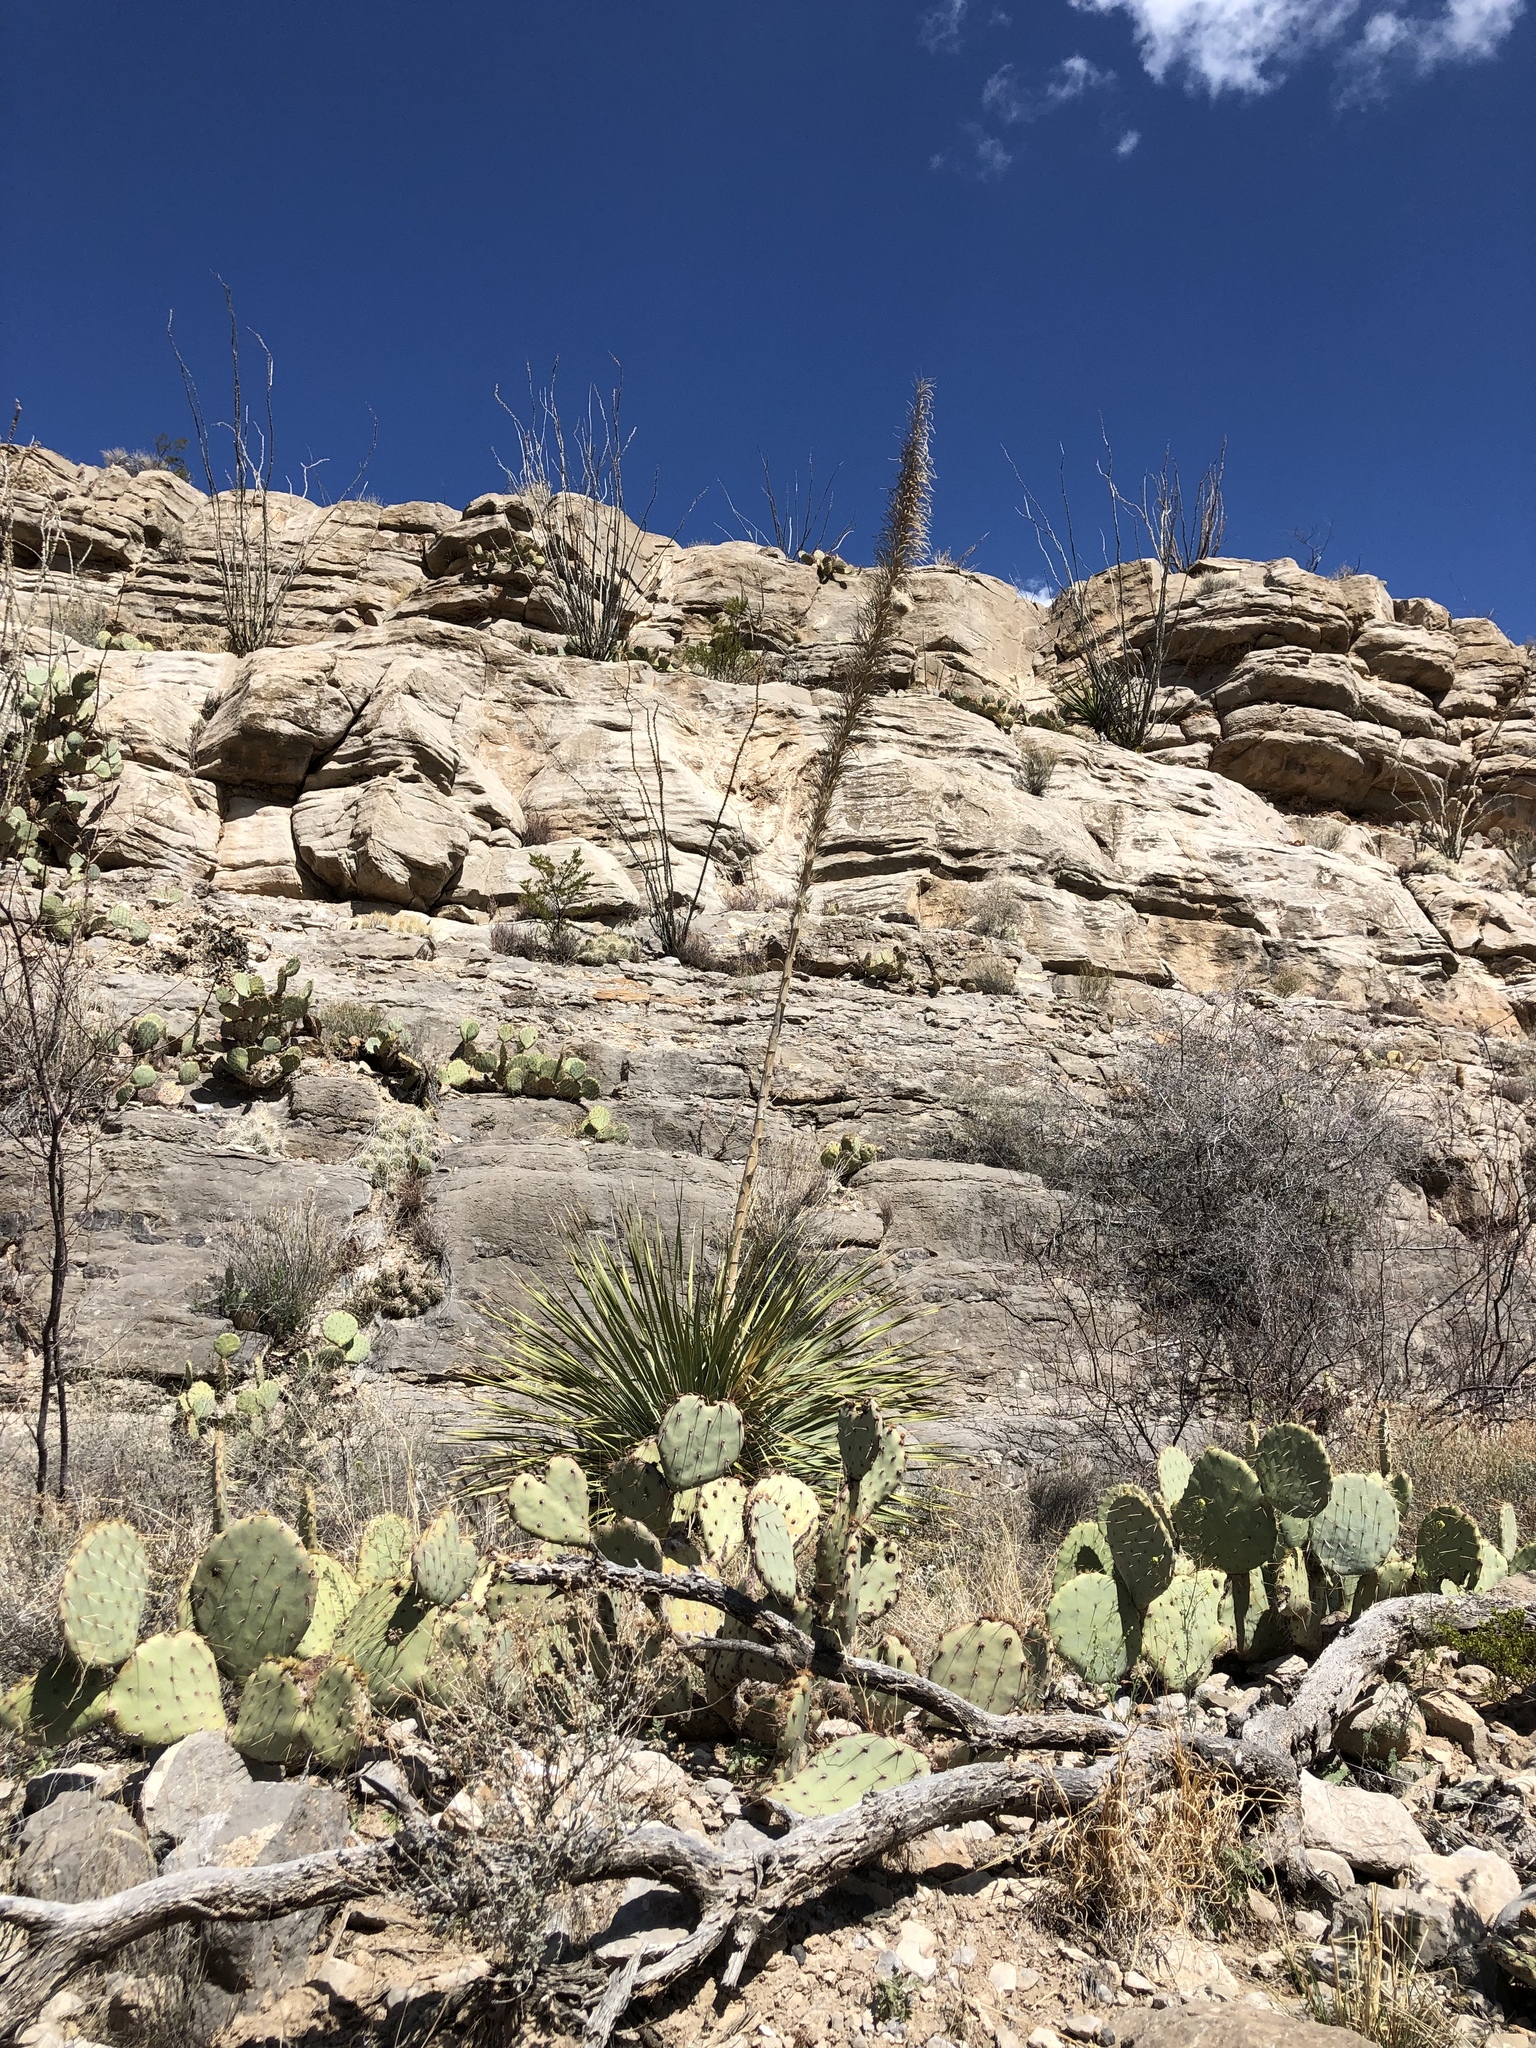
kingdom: Plantae
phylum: Tracheophyta
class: Magnoliopsida
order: Caryophyllales
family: Cactaceae
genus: Opuntia
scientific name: Opuntia orbiculata
